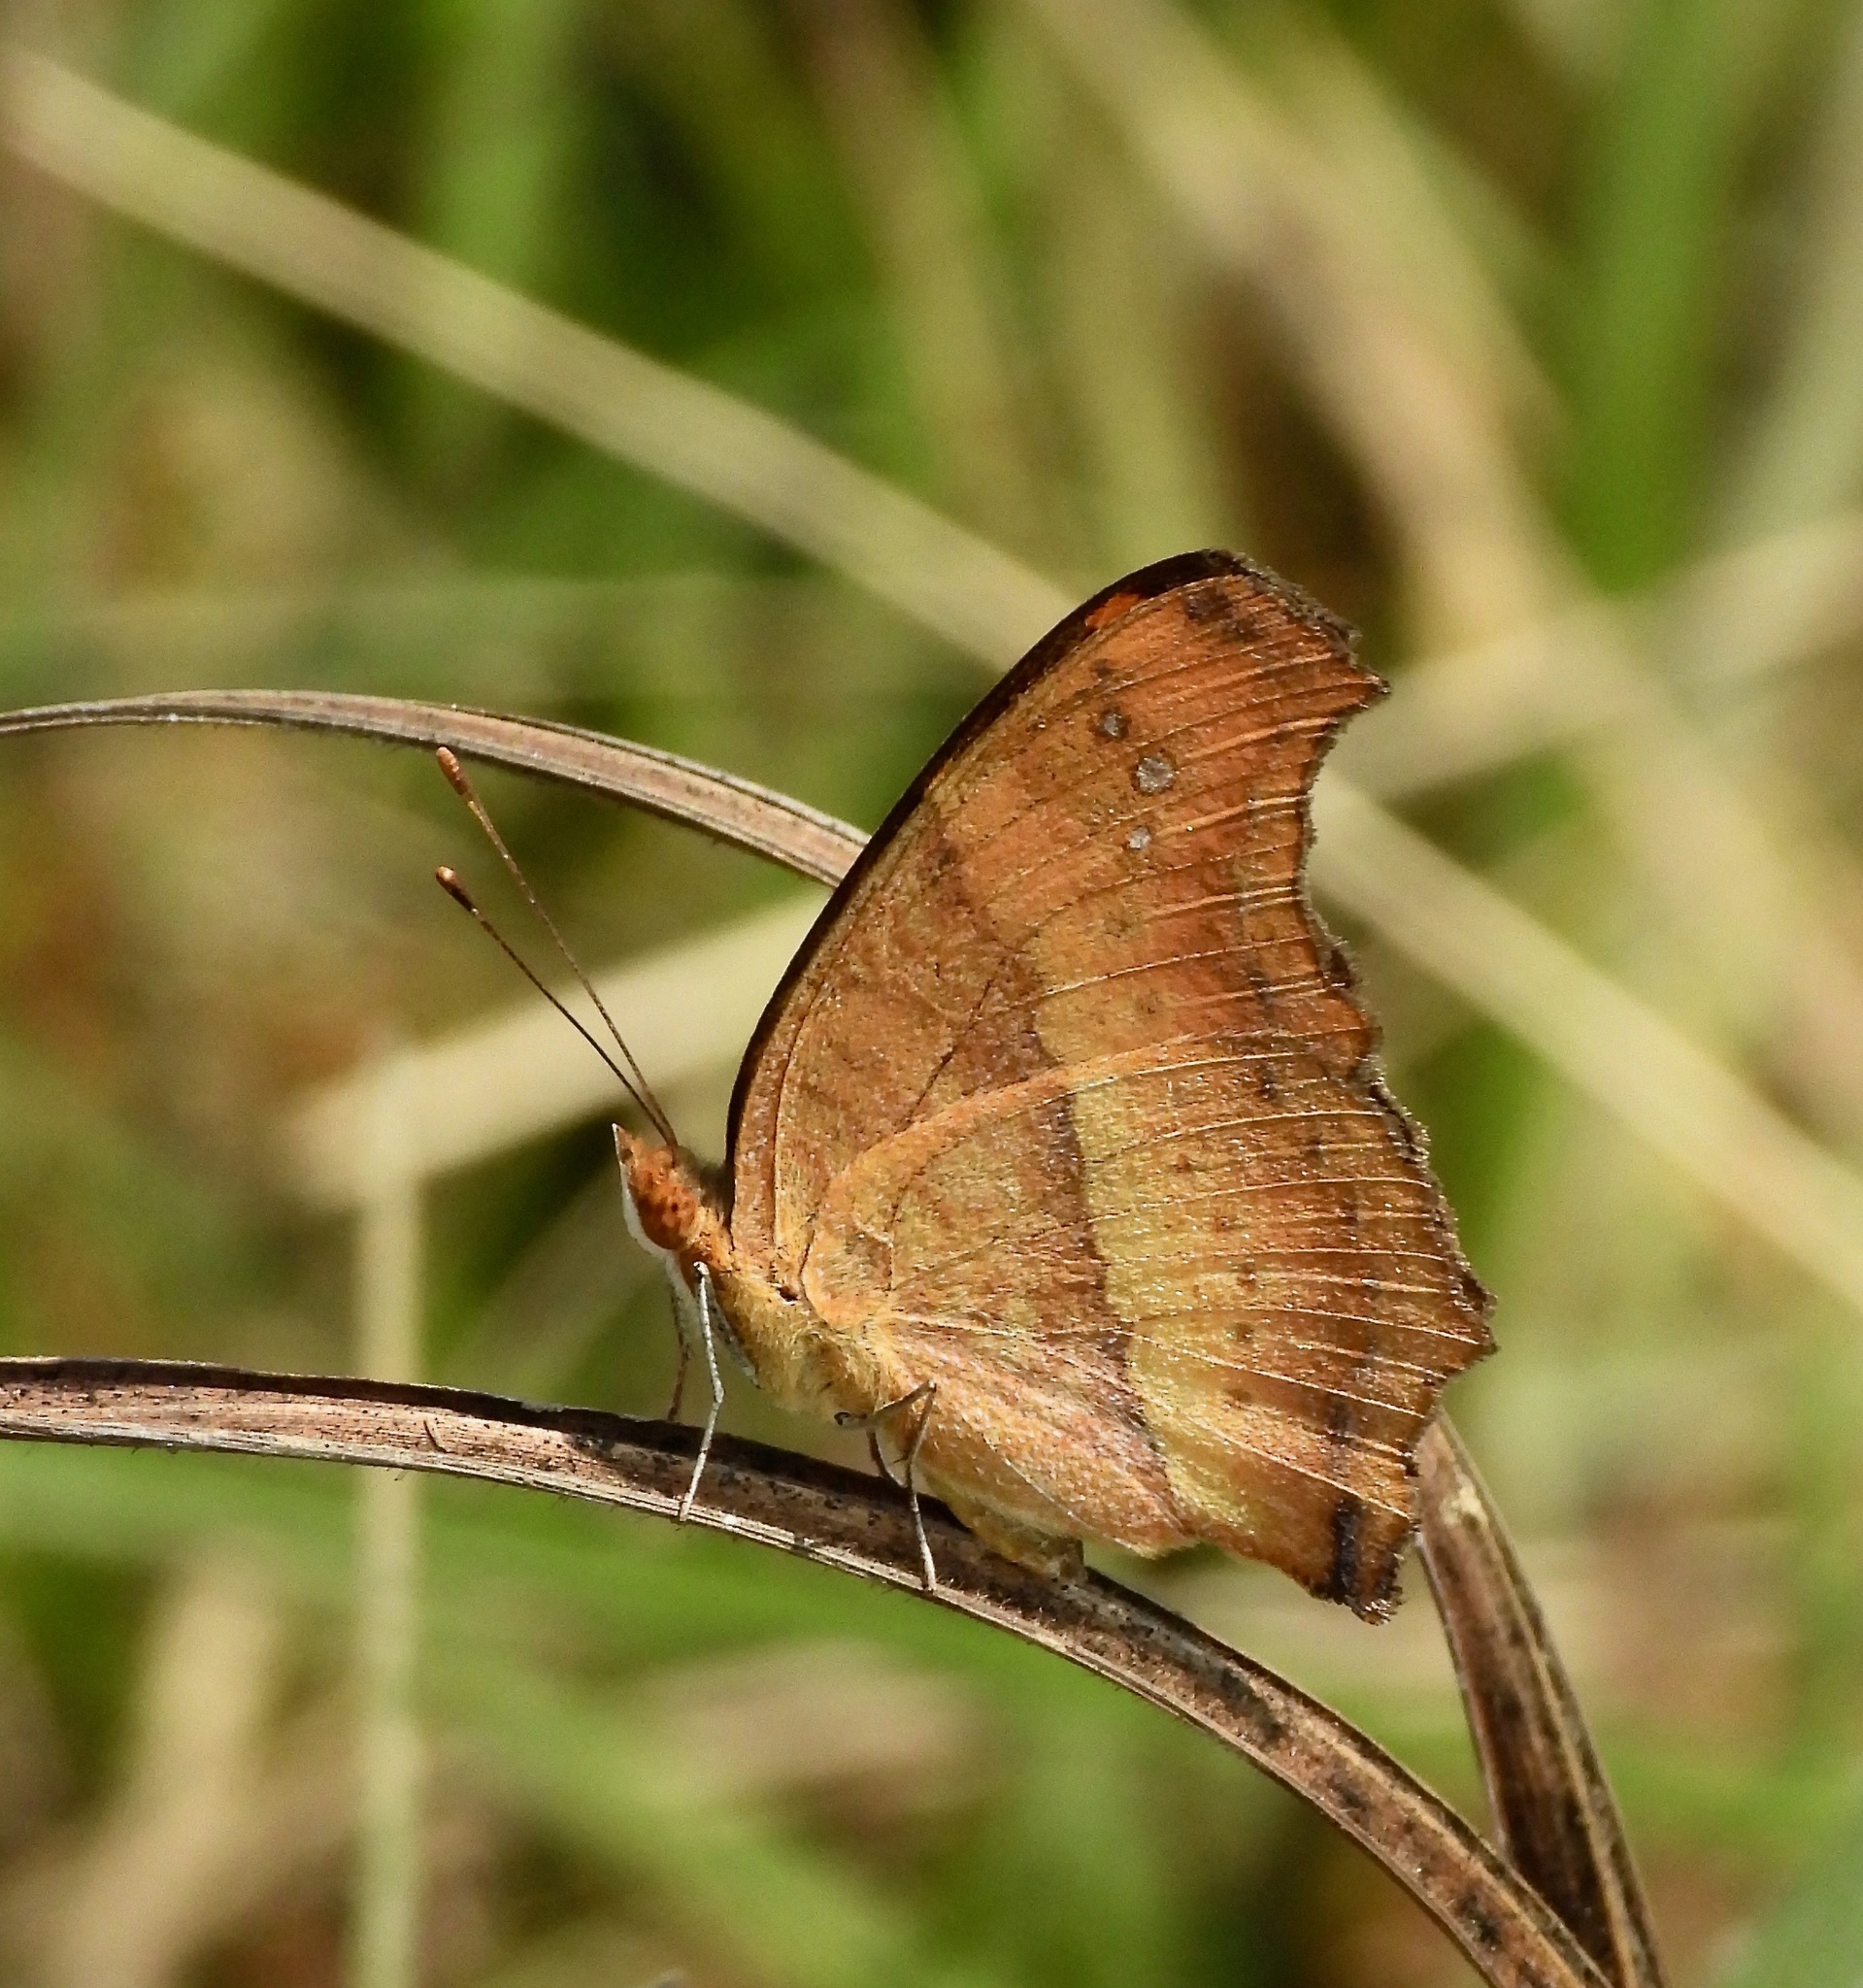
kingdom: Animalia
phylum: Arthropoda
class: Insecta
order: Lepidoptera
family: Nymphalidae
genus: Precis
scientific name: Precis ceryne
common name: Marsh commodore
